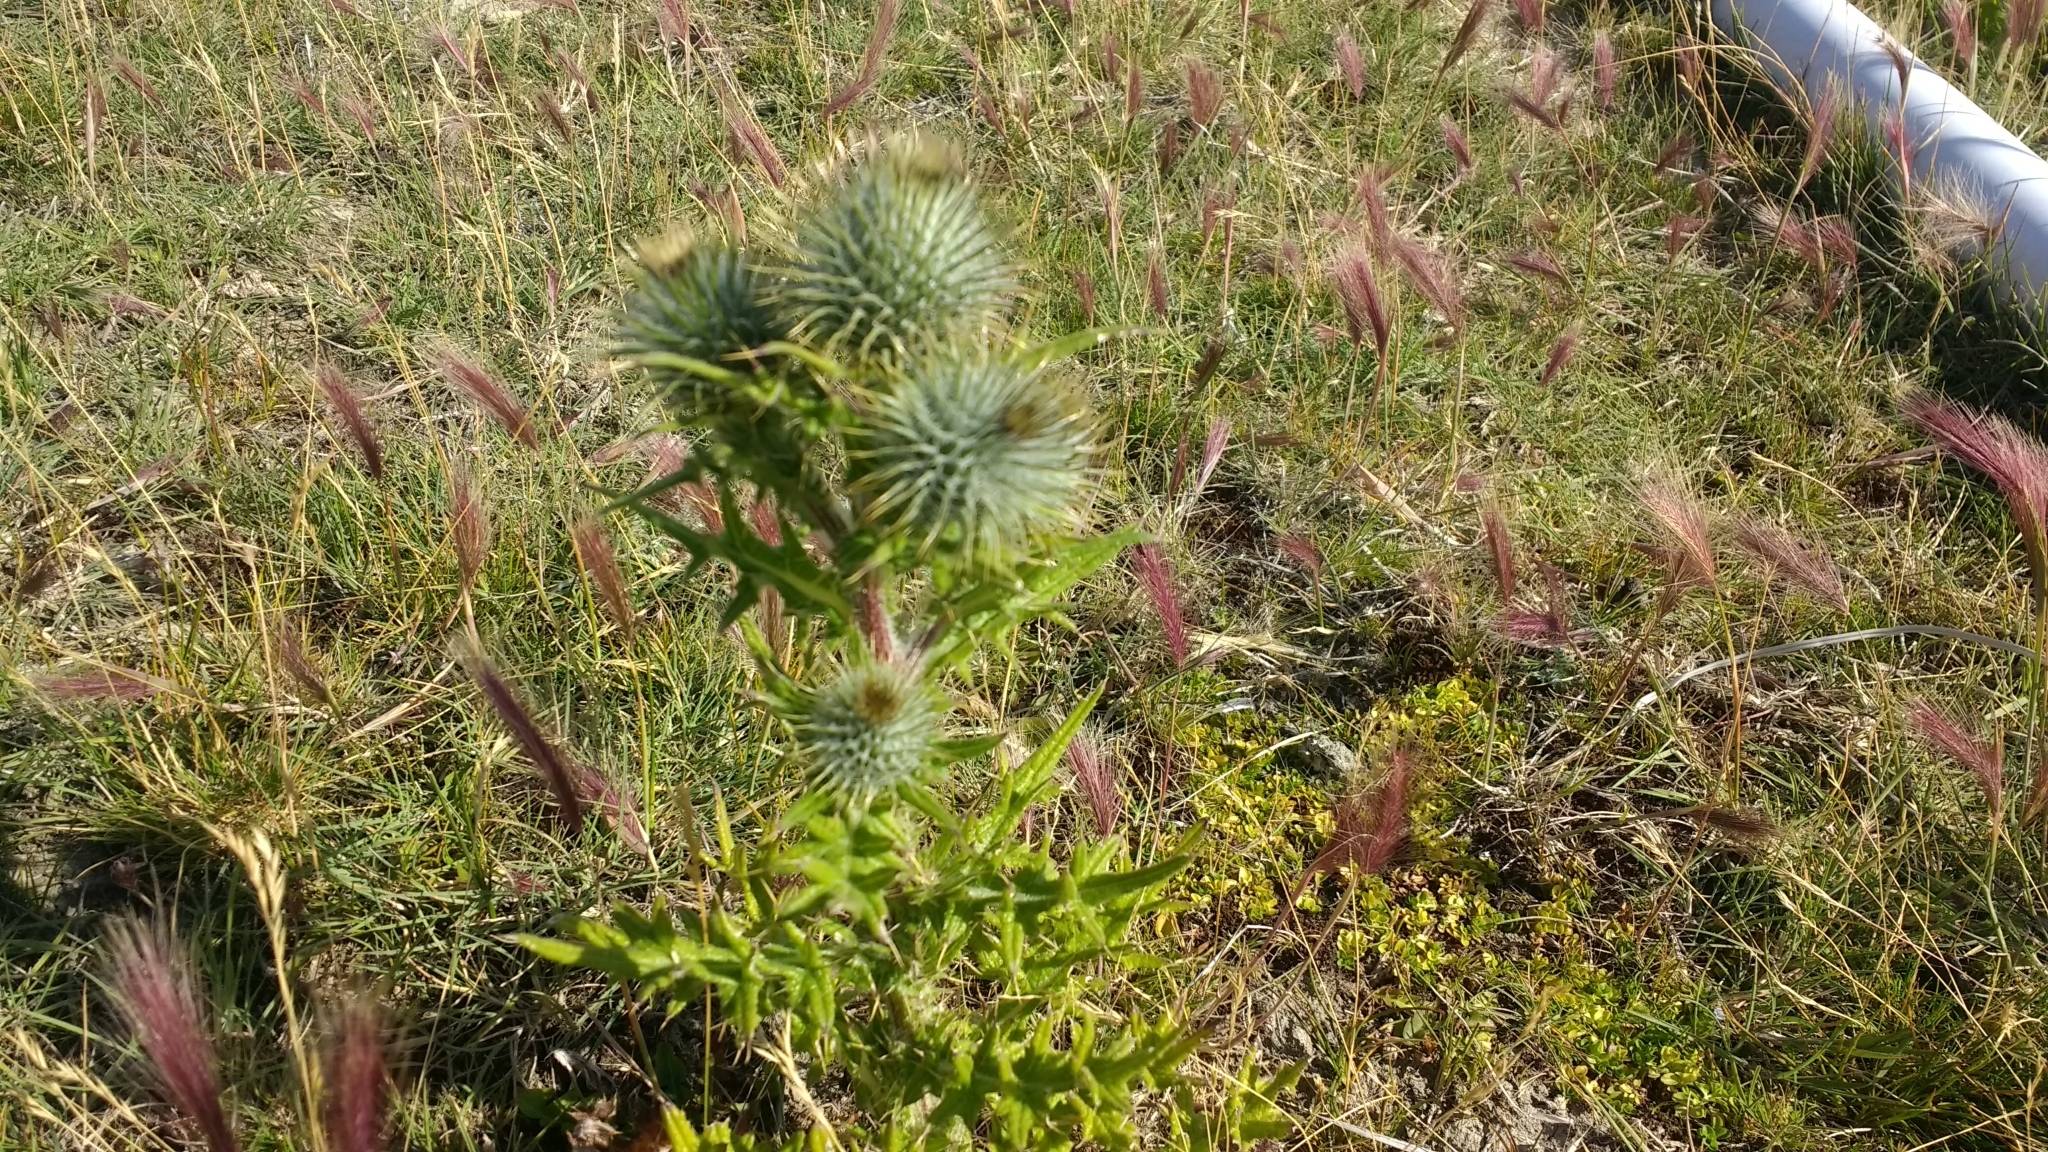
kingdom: Plantae
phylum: Tracheophyta
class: Magnoliopsida
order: Asterales
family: Asteraceae
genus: Cirsium
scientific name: Cirsium vulgare
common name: Bull thistle
